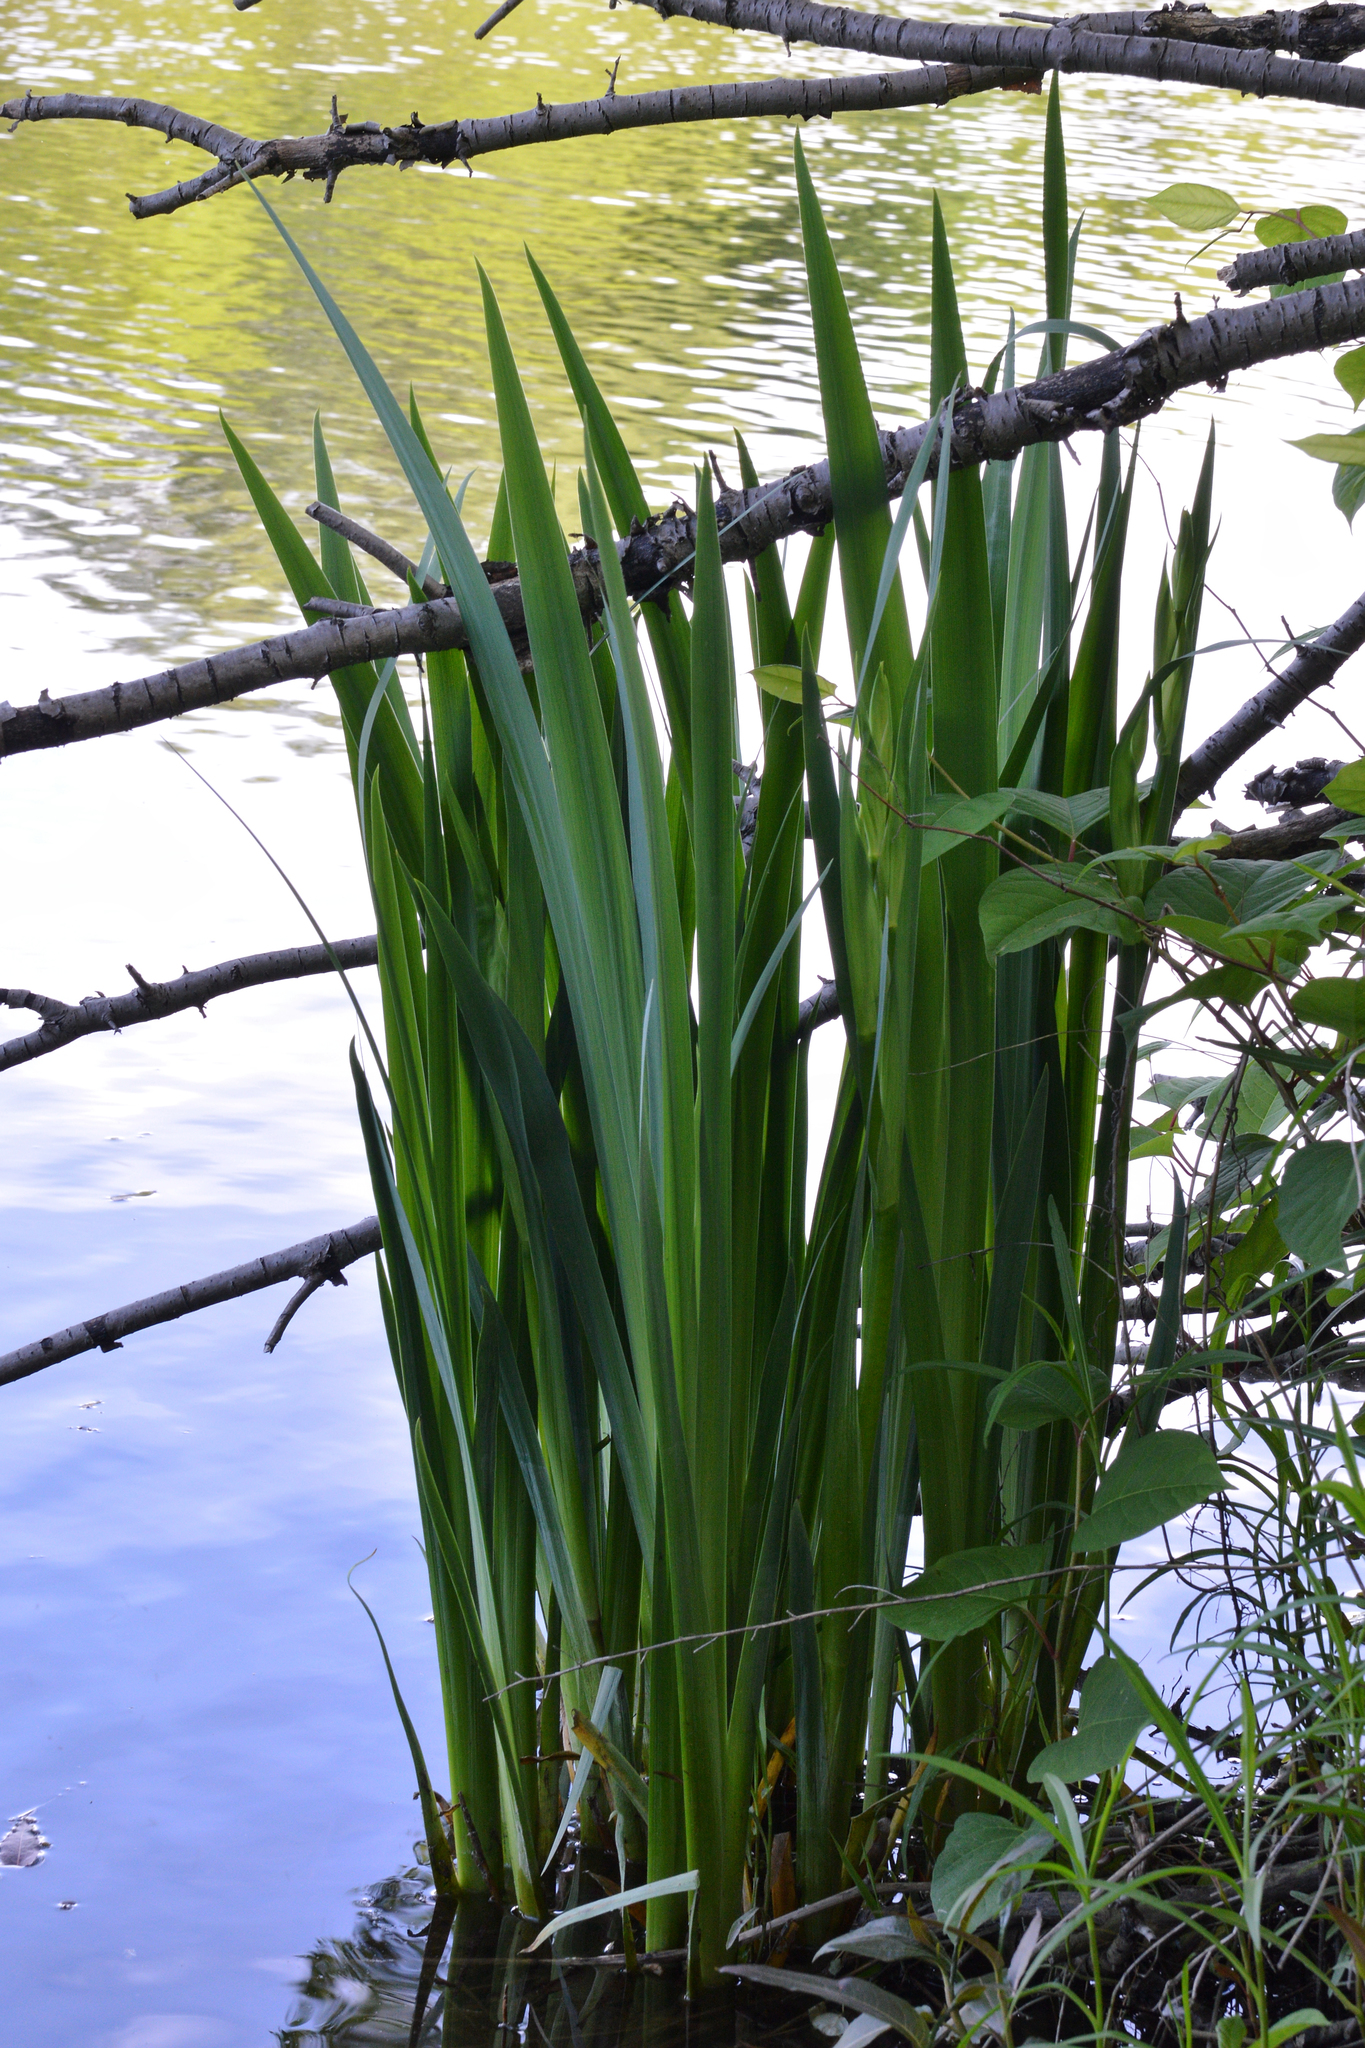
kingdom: Plantae
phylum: Tracheophyta
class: Liliopsida
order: Asparagales
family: Iridaceae
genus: Iris
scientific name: Iris pseudacorus
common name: Yellow flag
